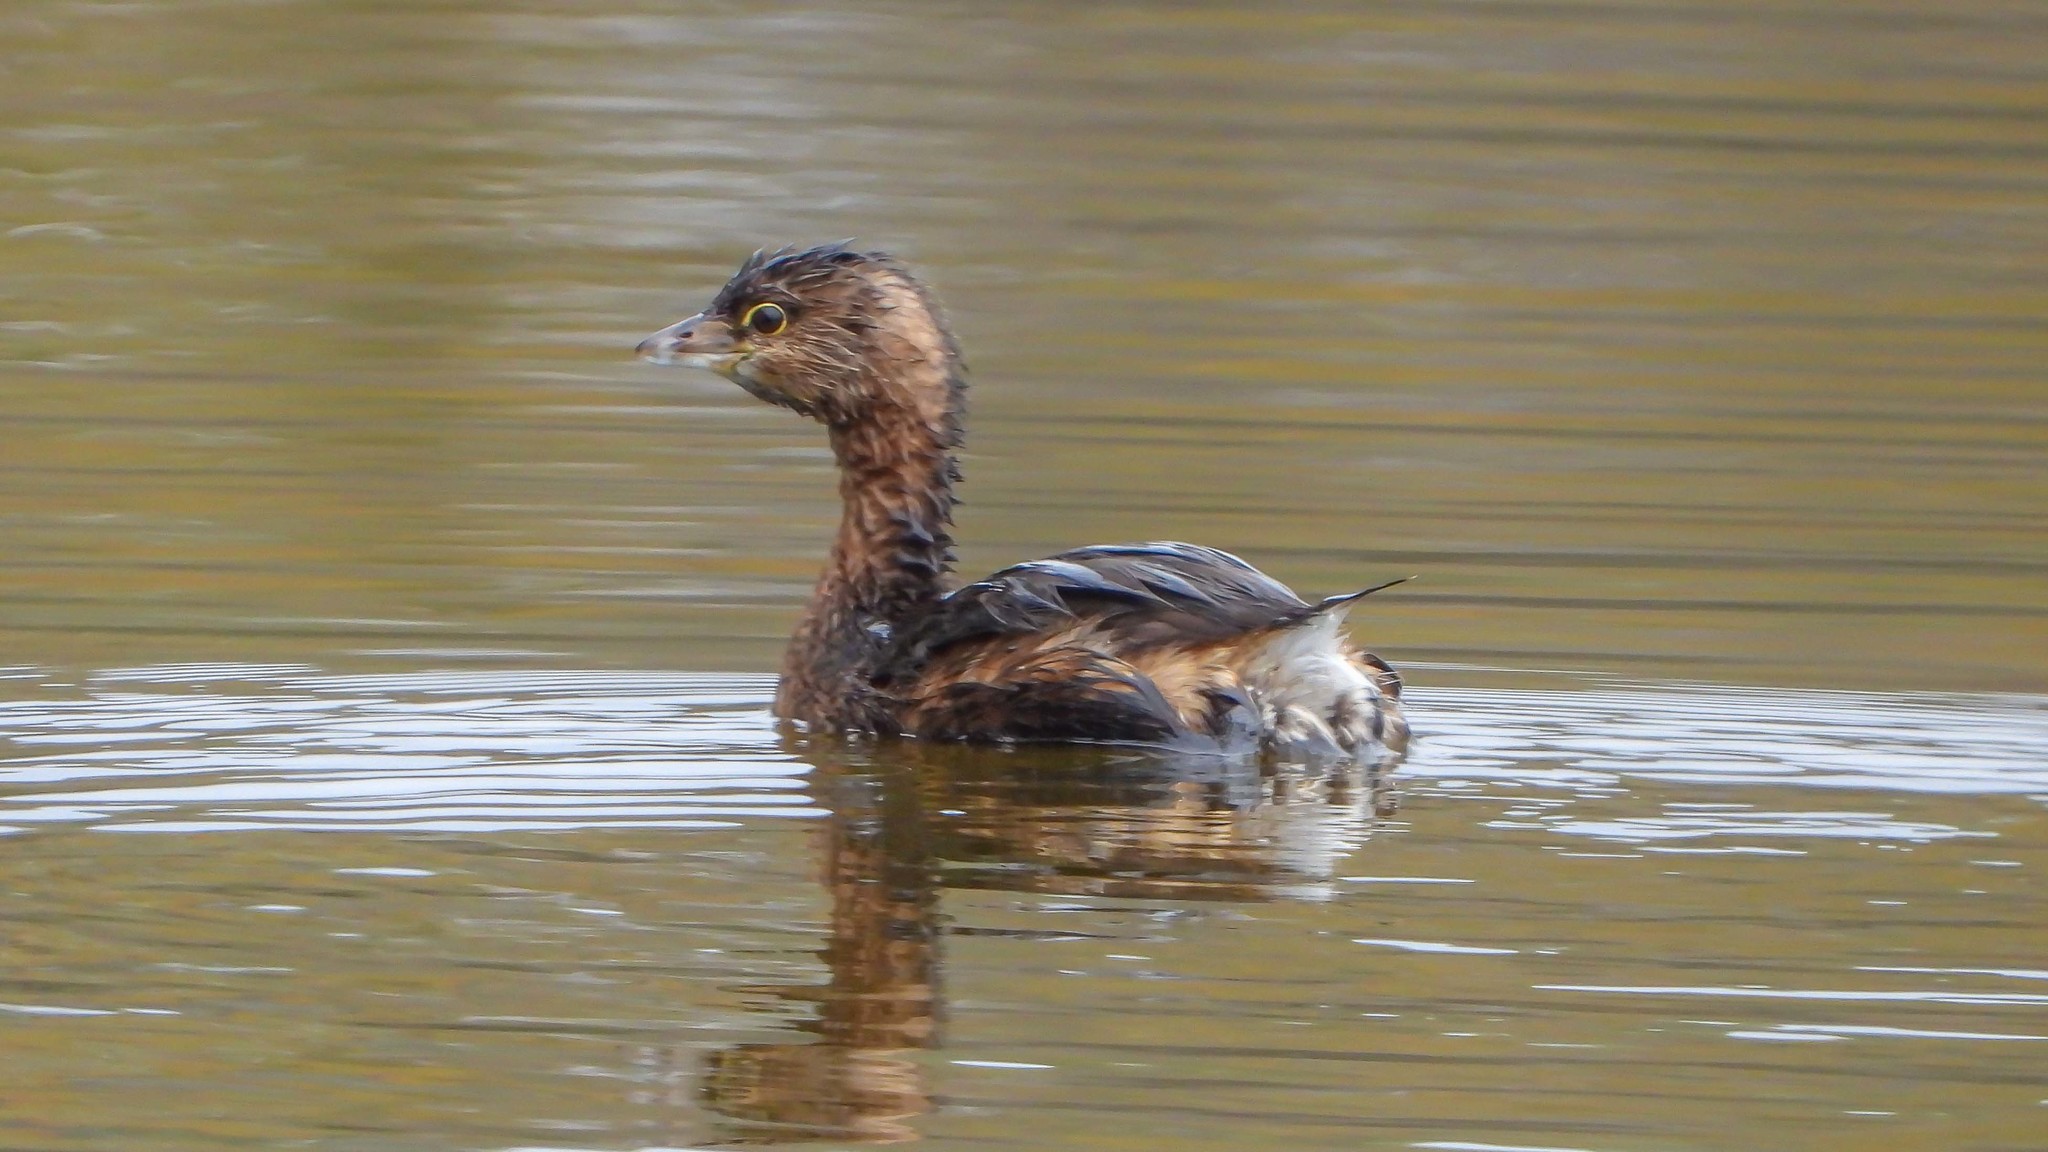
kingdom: Animalia
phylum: Chordata
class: Aves
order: Podicipediformes
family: Podicipedidae
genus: Podilymbus
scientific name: Podilymbus podiceps
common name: Pied-billed grebe
